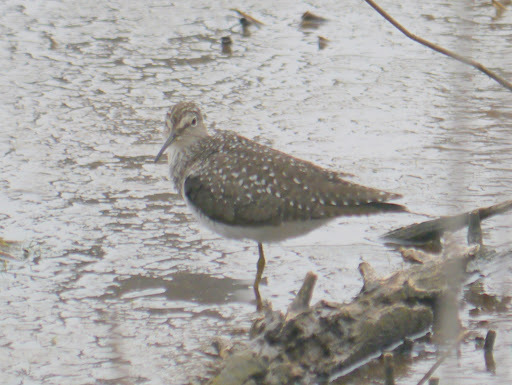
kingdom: Animalia
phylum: Chordata
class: Aves
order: Charadriiformes
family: Scolopacidae
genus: Tringa
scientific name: Tringa solitaria
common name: Solitary sandpiper
